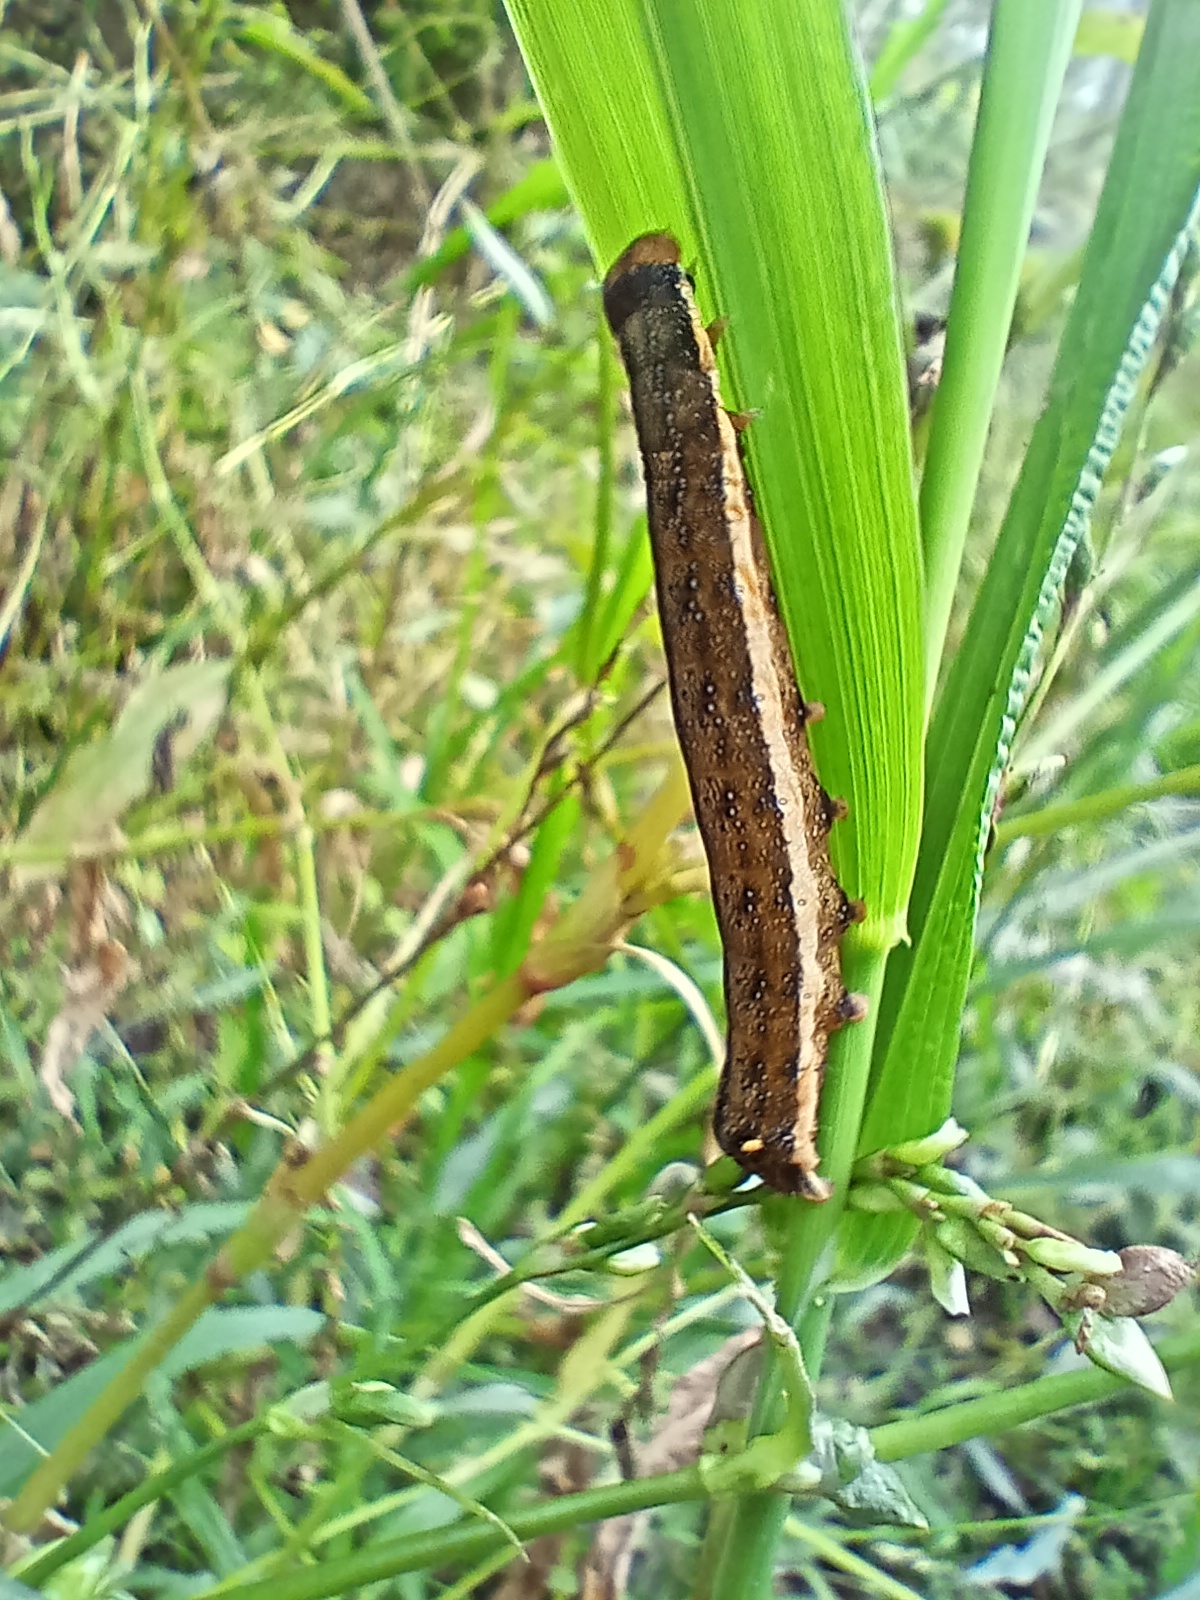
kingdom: Animalia
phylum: Arthropoda
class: Insecta
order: Lepidoptera
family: Noctuidae
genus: Trachea
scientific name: Trachea atriplicis
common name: Orache moth
